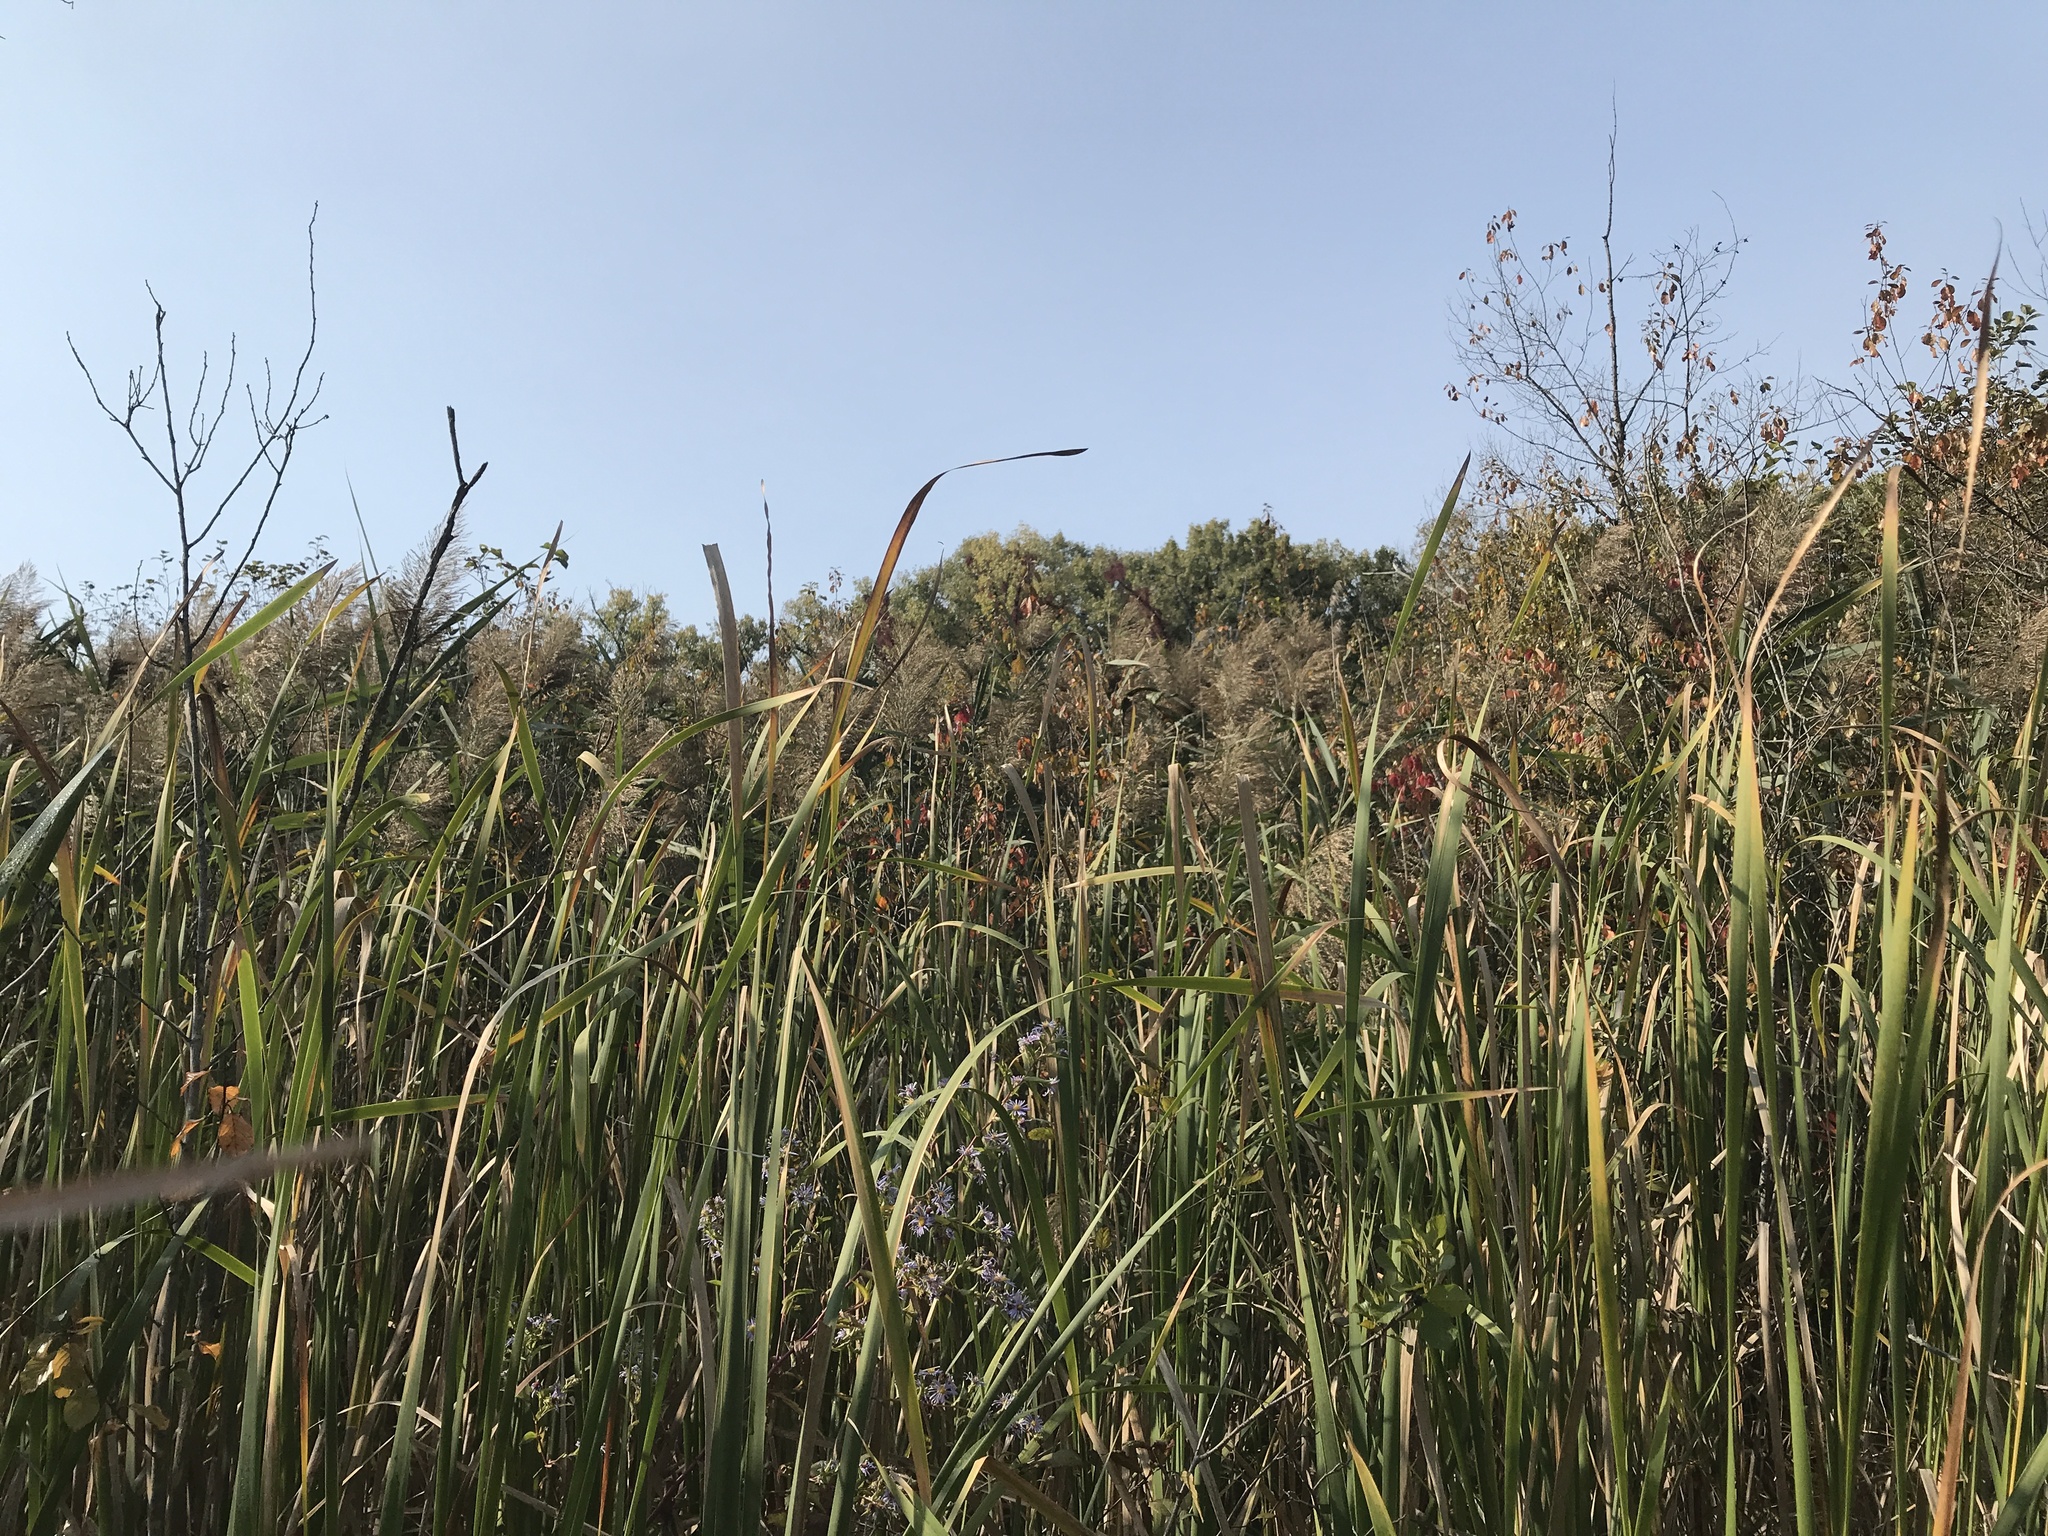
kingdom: Plantae
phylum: Tracheophyta
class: Liliopsida
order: Poales
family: Poaceae
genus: Phragmites
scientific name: Phragmites australis
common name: Common reed
